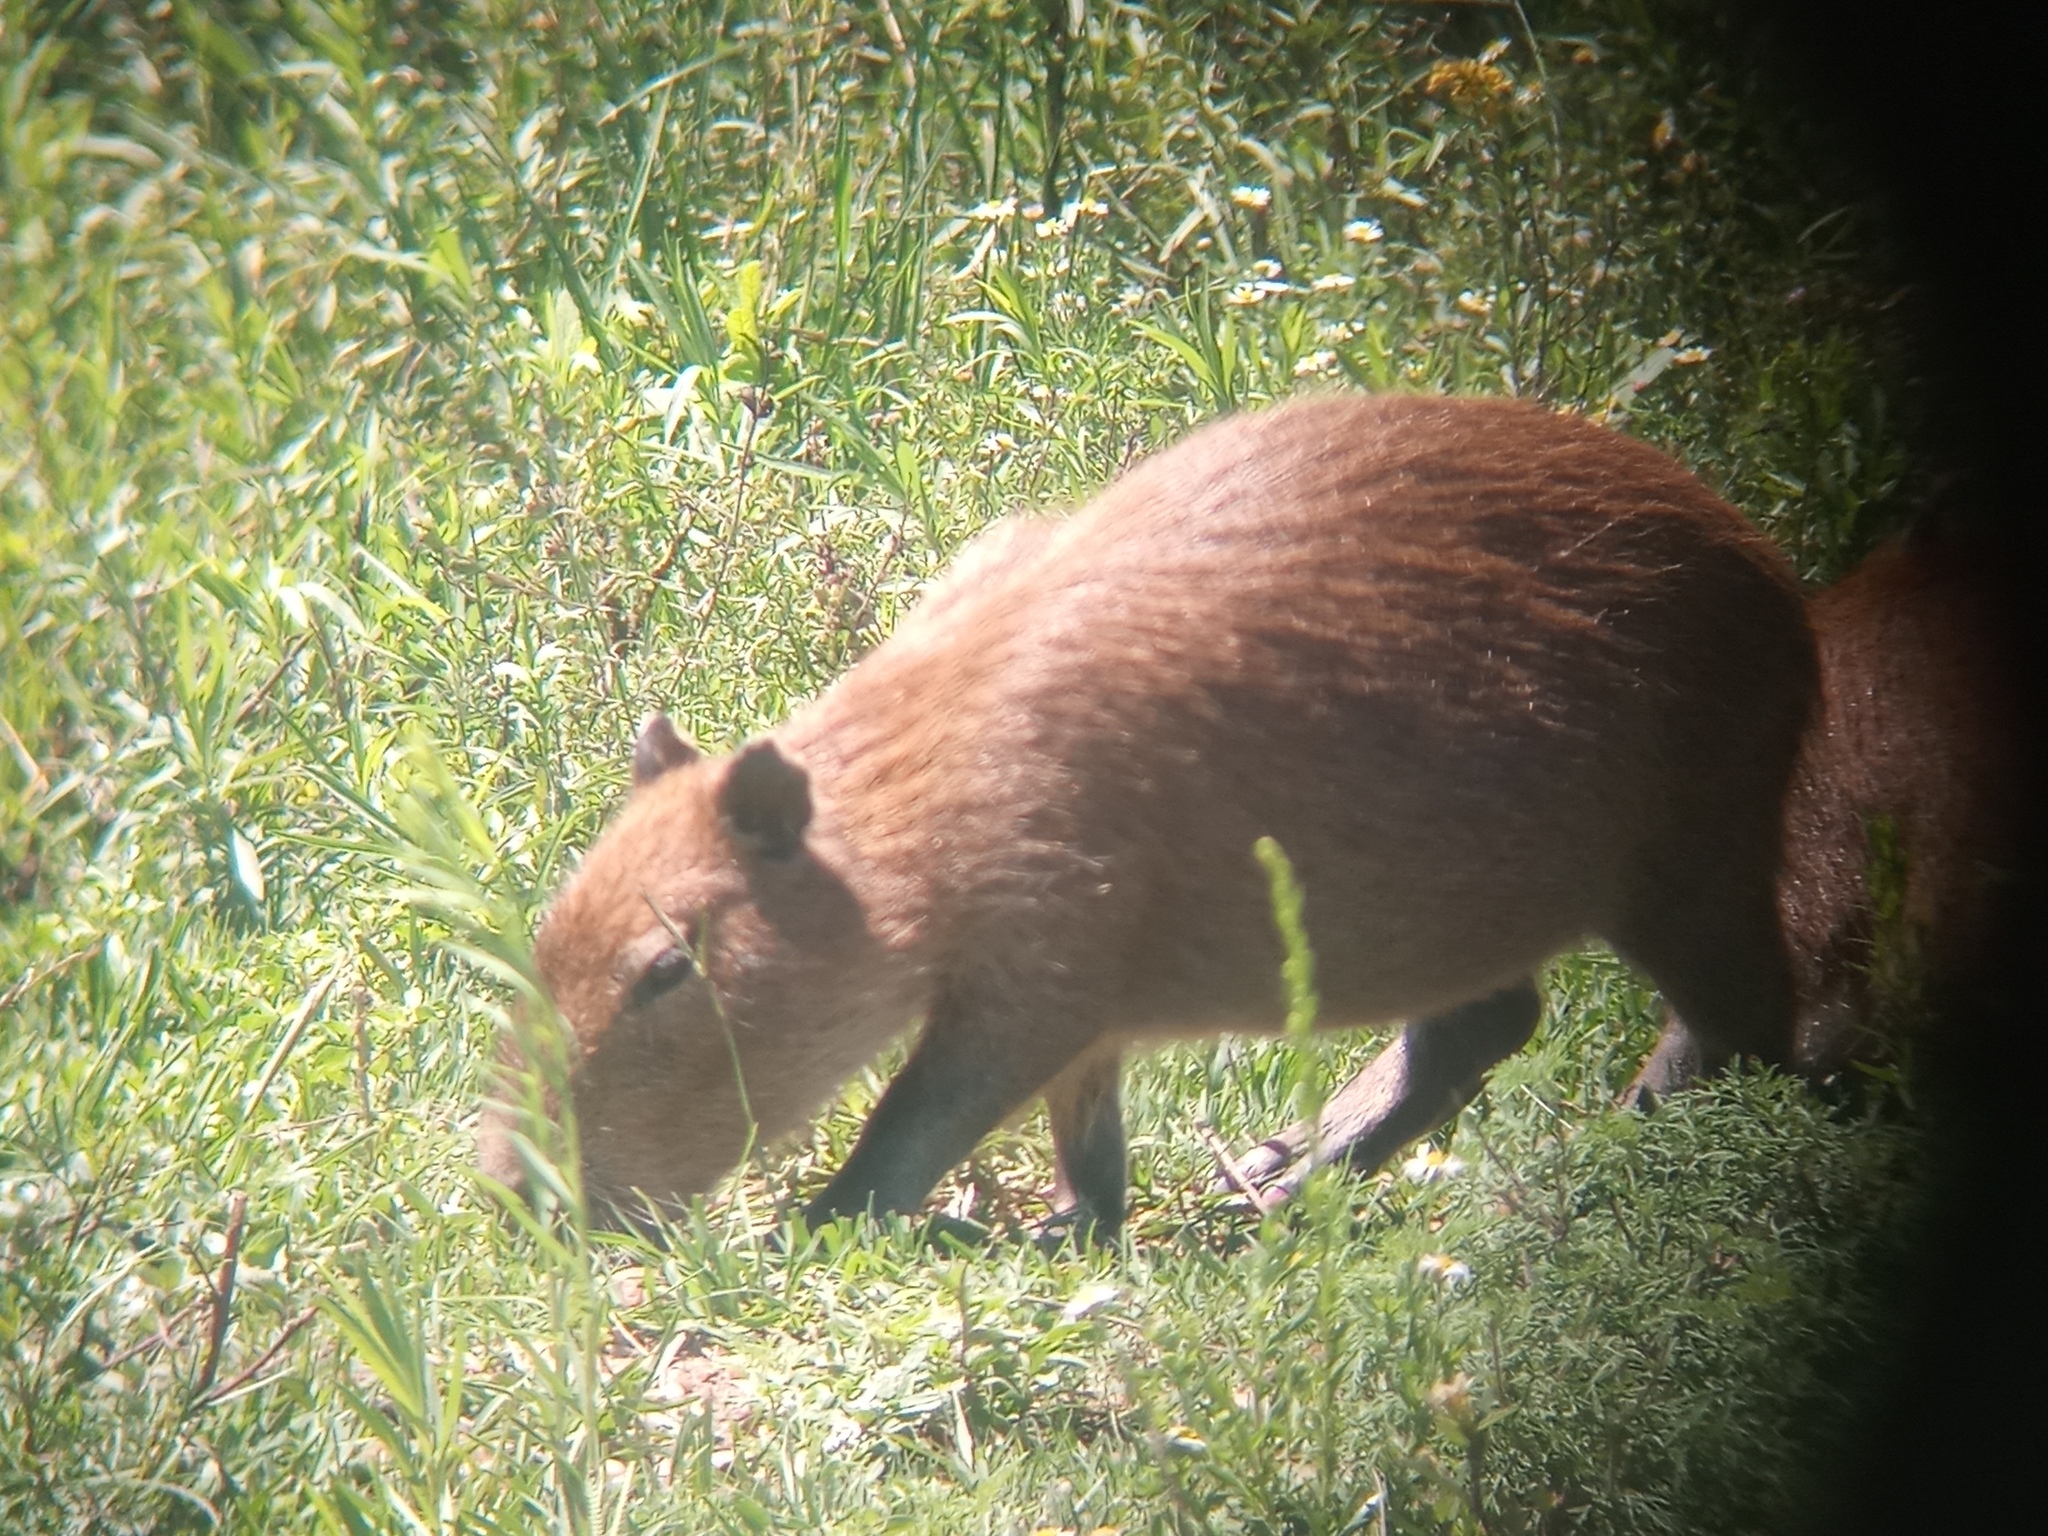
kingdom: Animalia
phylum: Chordata
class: Mammalia
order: Rodentia
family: Caviidae
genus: Hydrochoerus
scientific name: Hydrochoerus hydrochaeris
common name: Capybara
